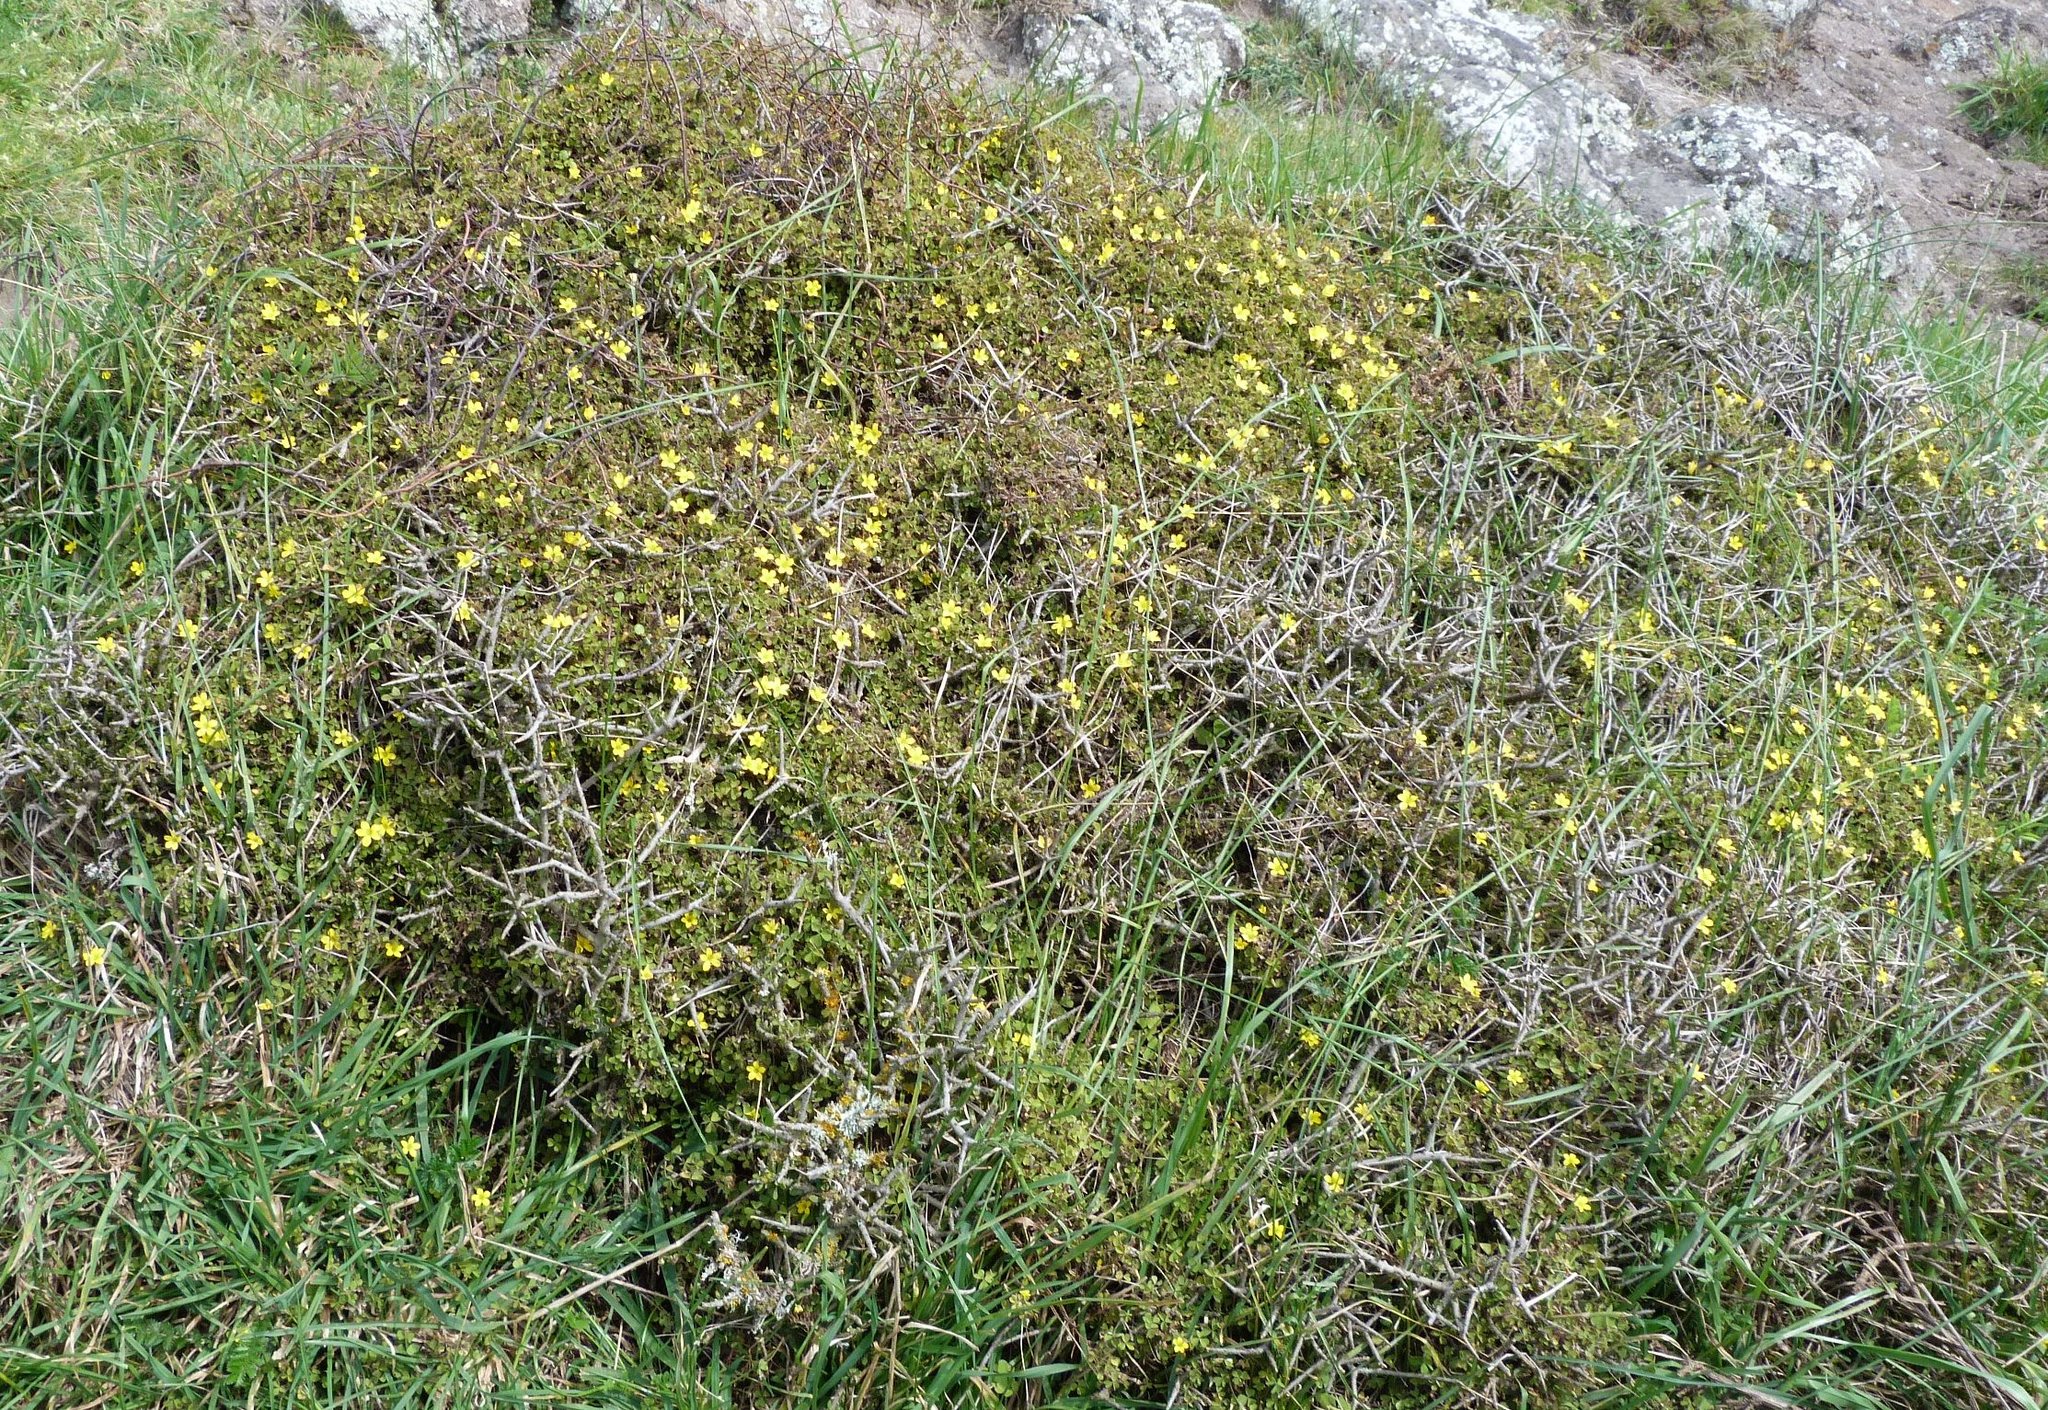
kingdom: Plantae
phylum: Tracheophyta
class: Magnoliopsida
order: Oxalidales
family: Oxalidaceae
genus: Oxalis
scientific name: Oxalis exilis
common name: Least yellow-sorrel
